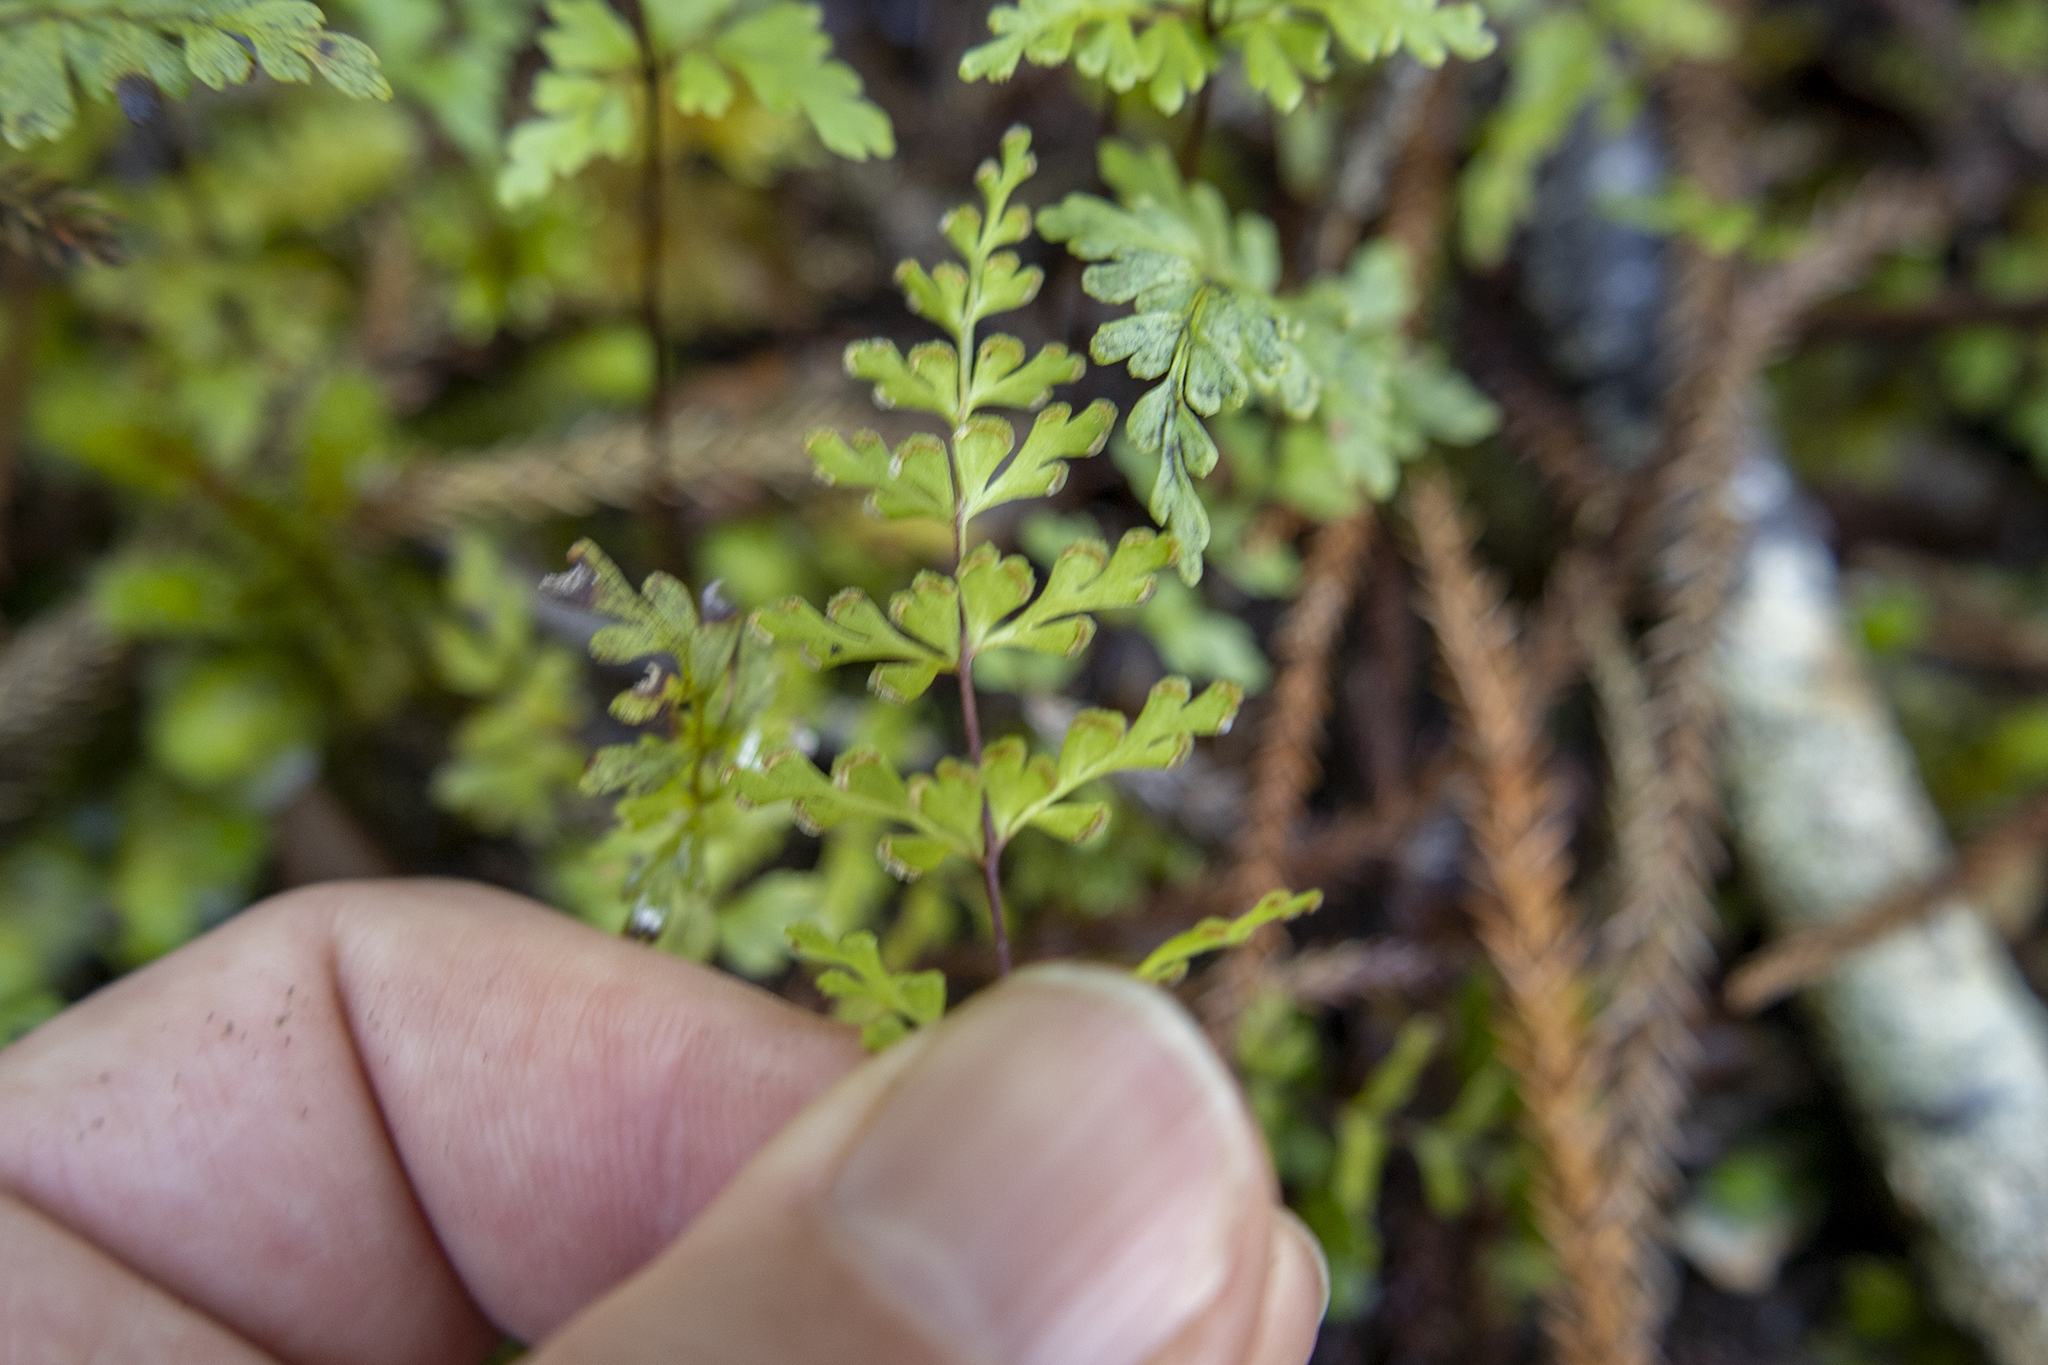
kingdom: Plantae
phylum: Tracheophyta
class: Polypodiopsida
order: Polypodiales
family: Lindsaeaceae
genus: Lindsaea
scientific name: Lindsaea trichomanoides
